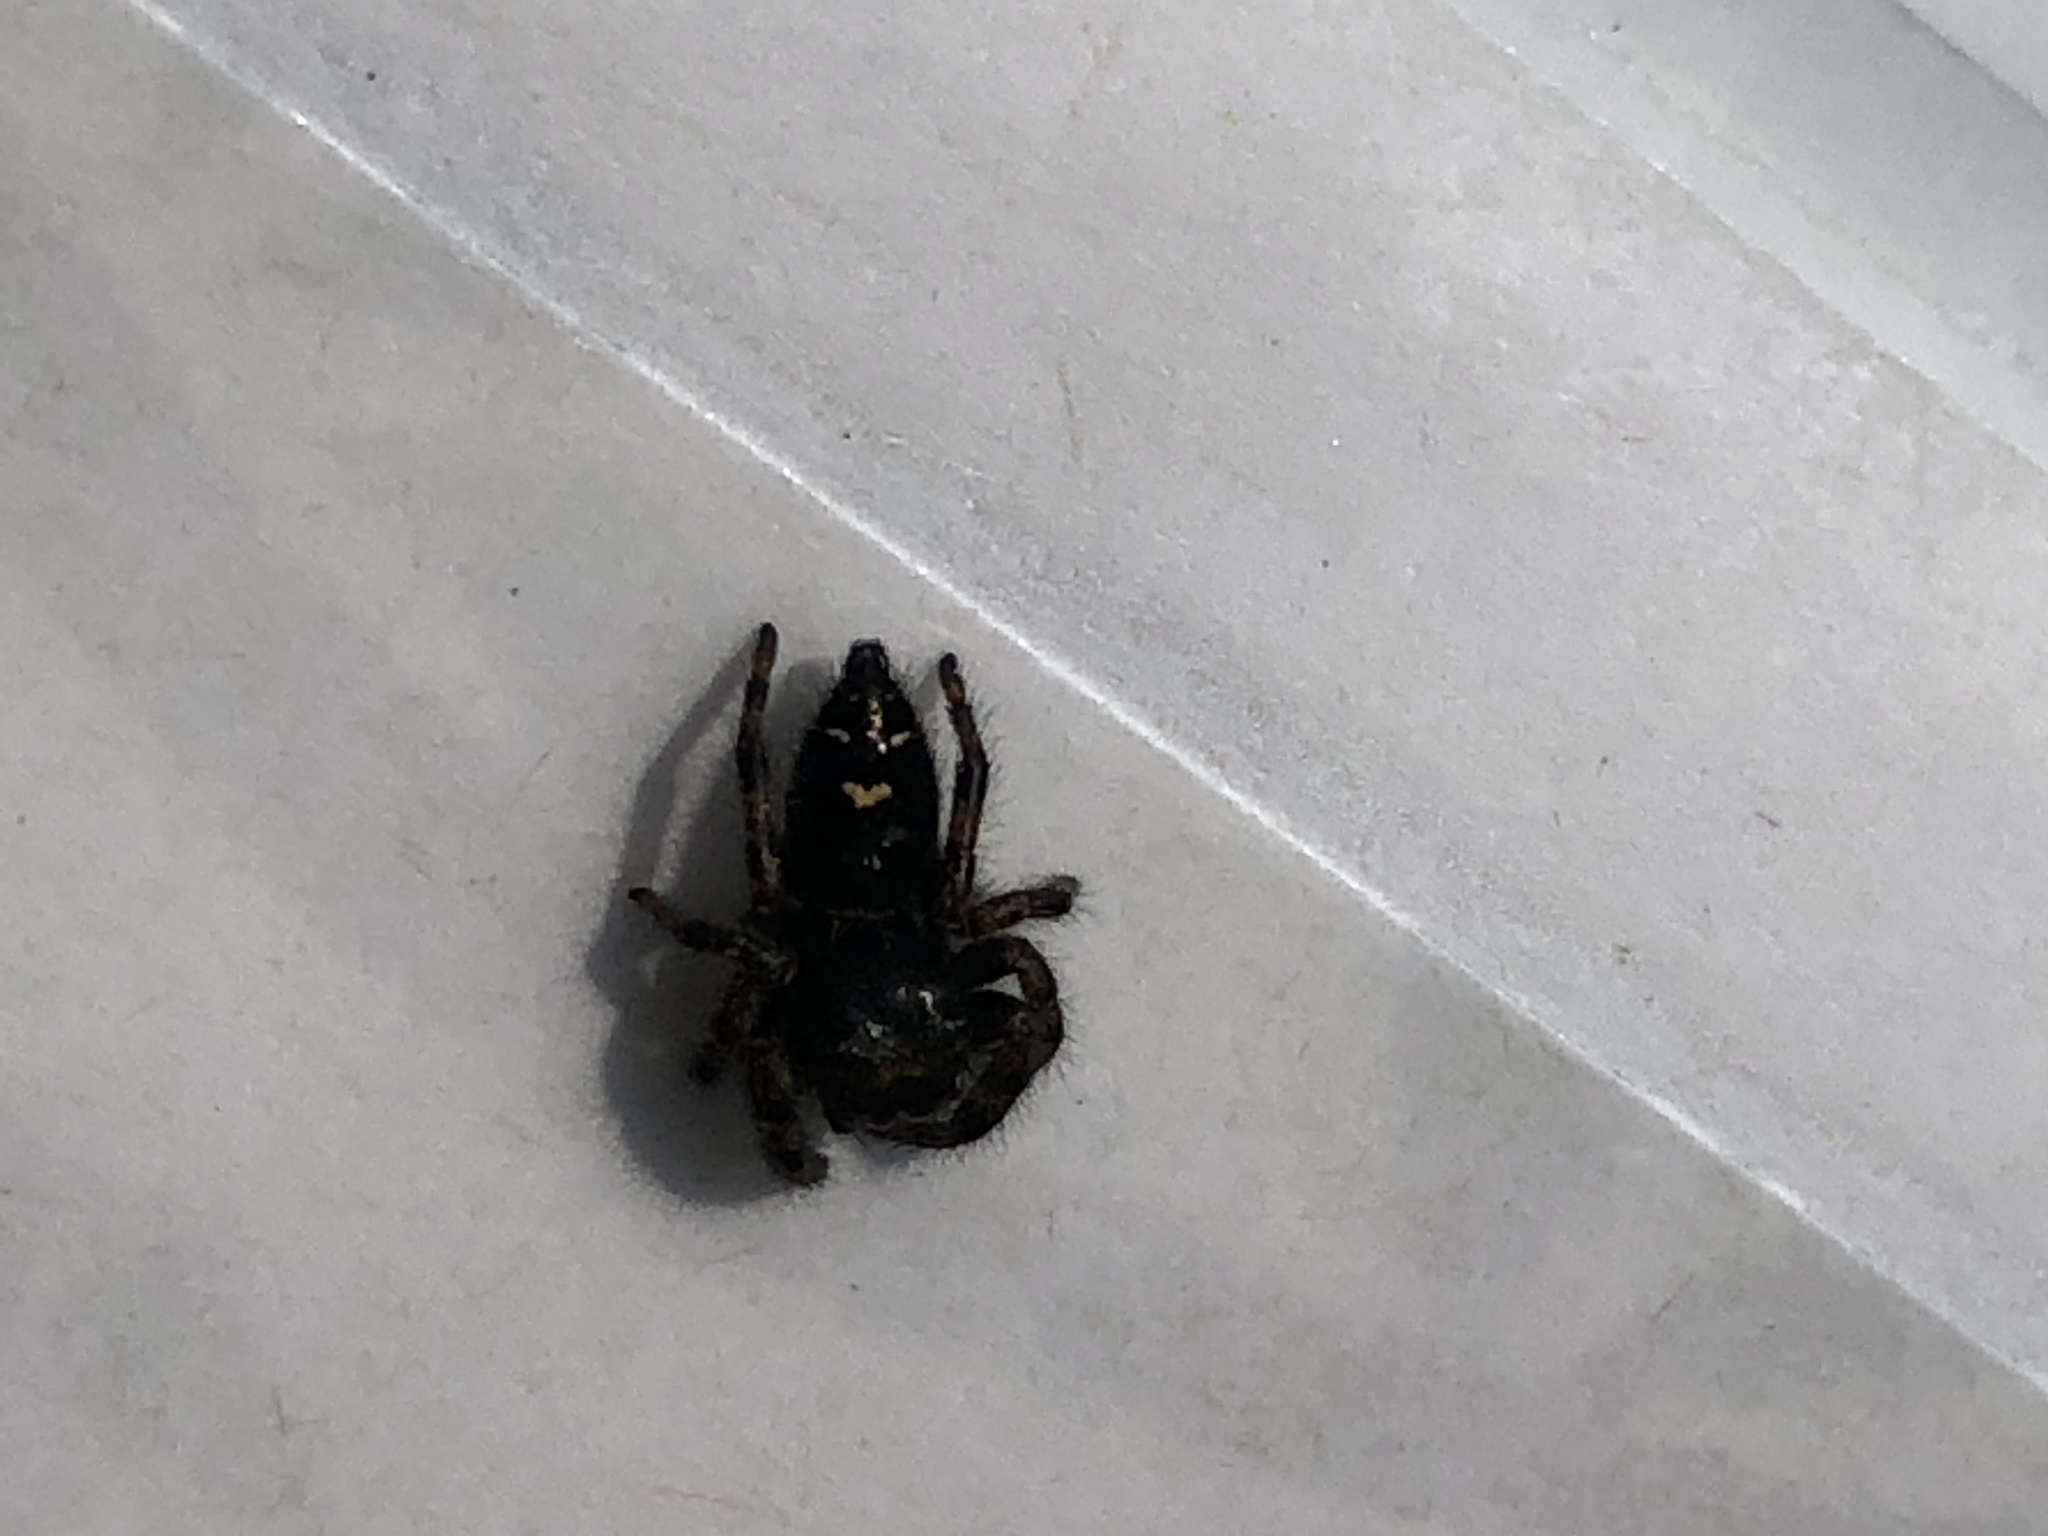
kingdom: Animalia
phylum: Arthropoda
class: Arachnida
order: Araneae
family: Salticidae
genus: Phidippus
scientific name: Phidippus audax
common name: Bold jumper
